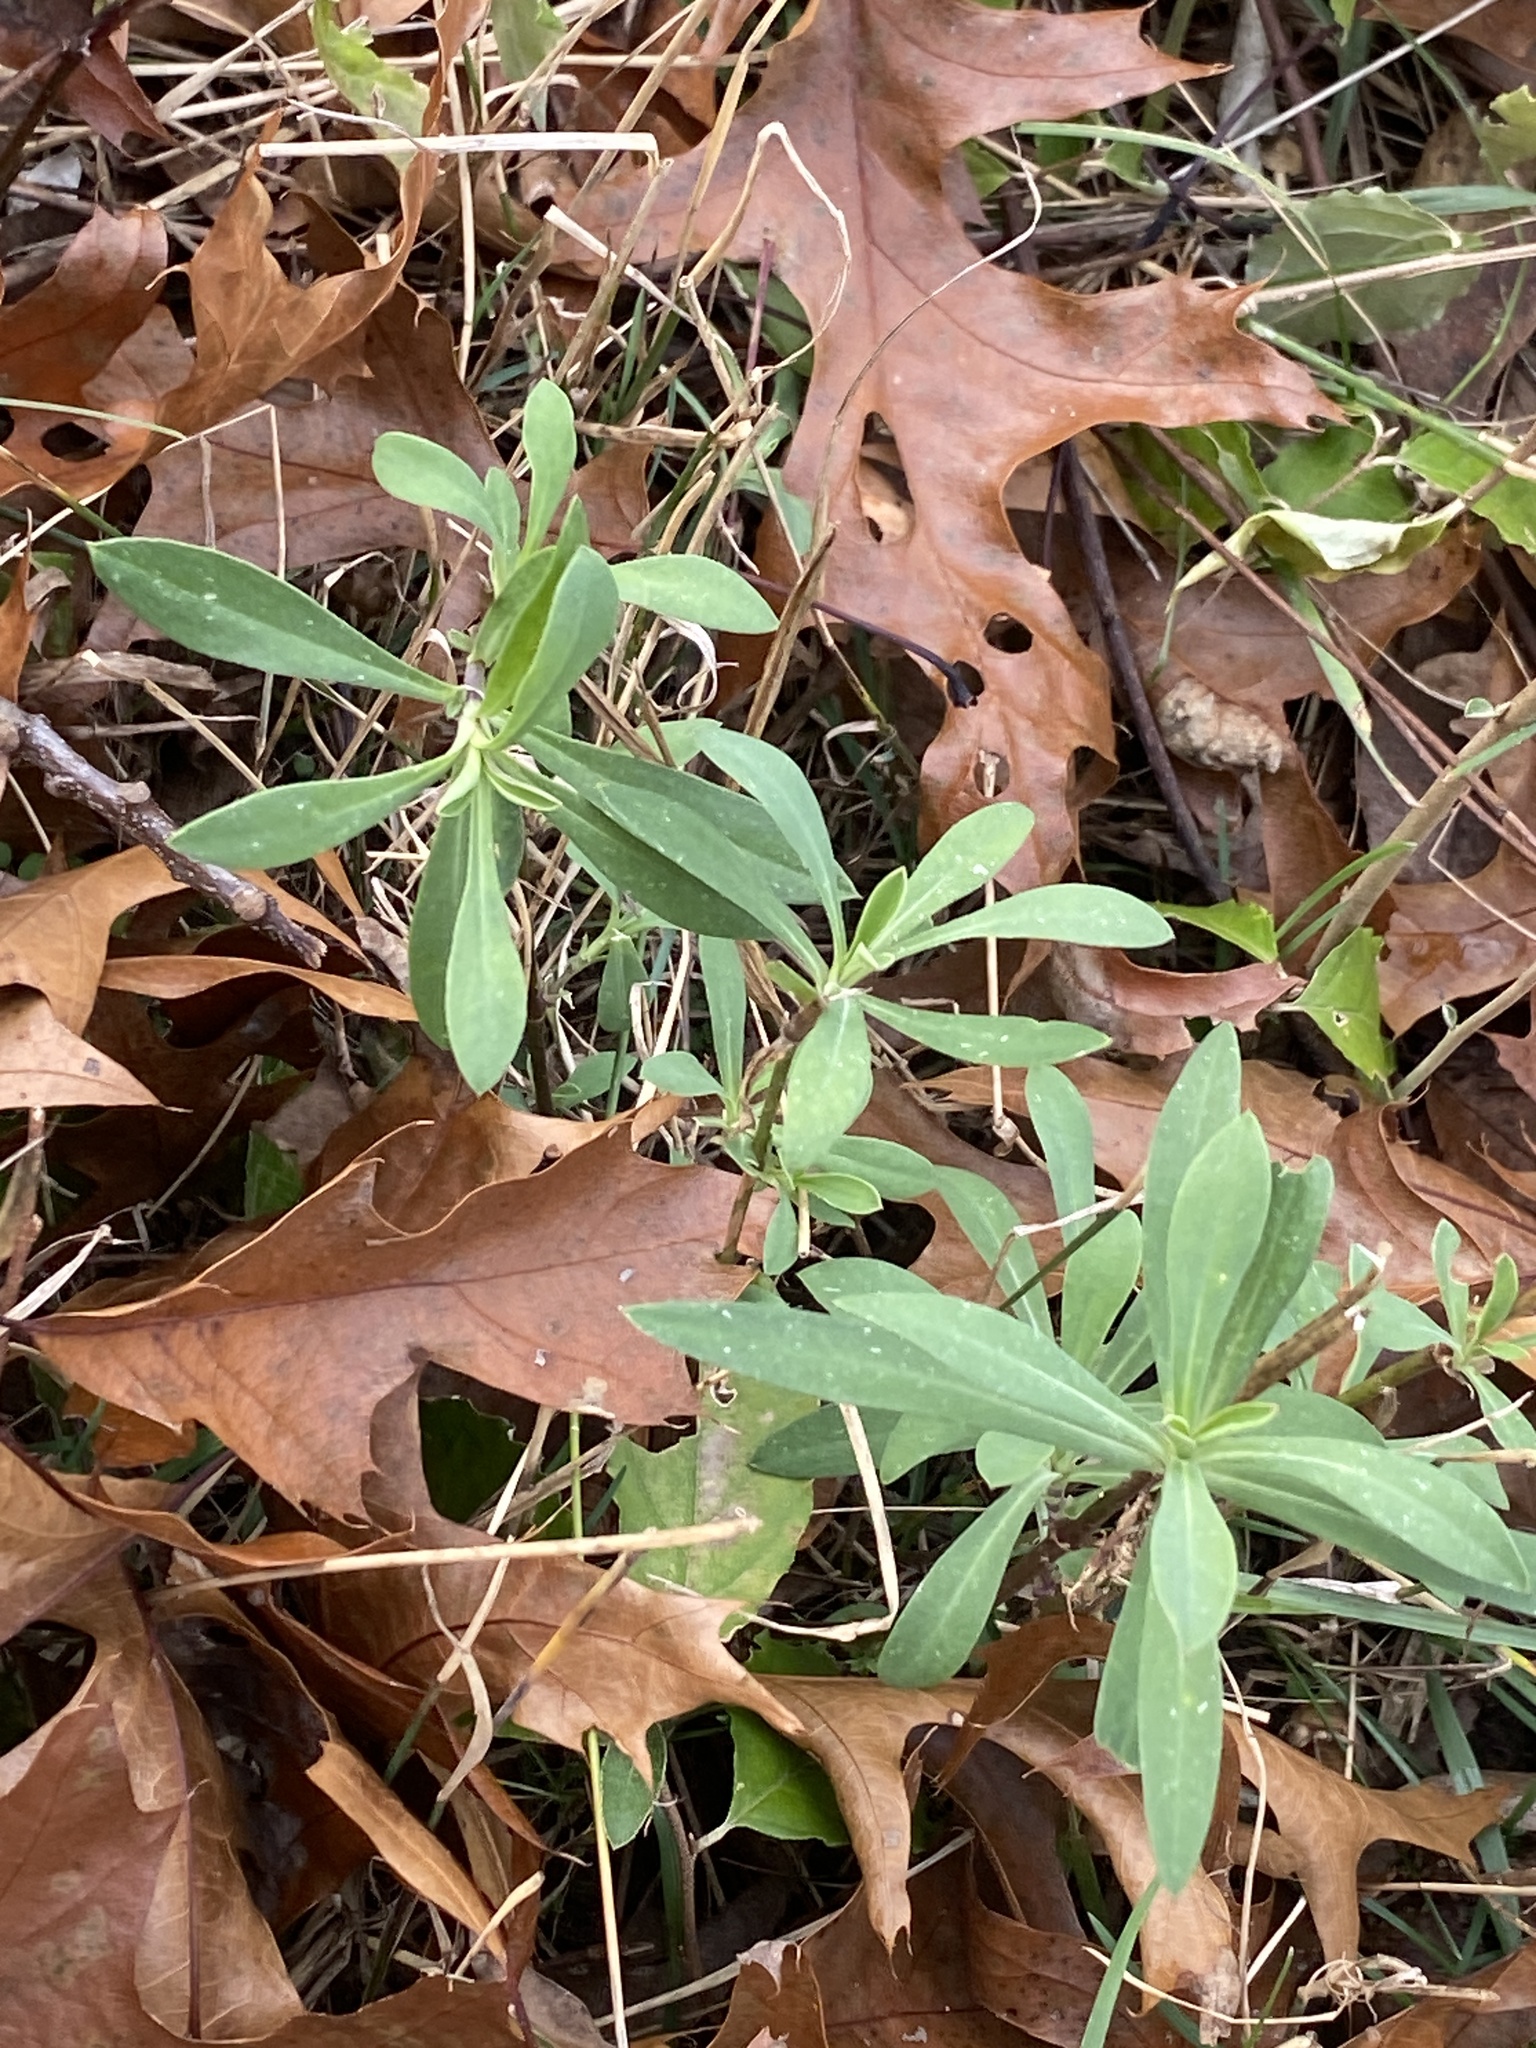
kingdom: Plantae
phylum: Tracheophyta
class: Magnoliopsida
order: Caryophyllales
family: Caryophyllaceae
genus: Silene
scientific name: Silene vulgaris
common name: Bladder campion
